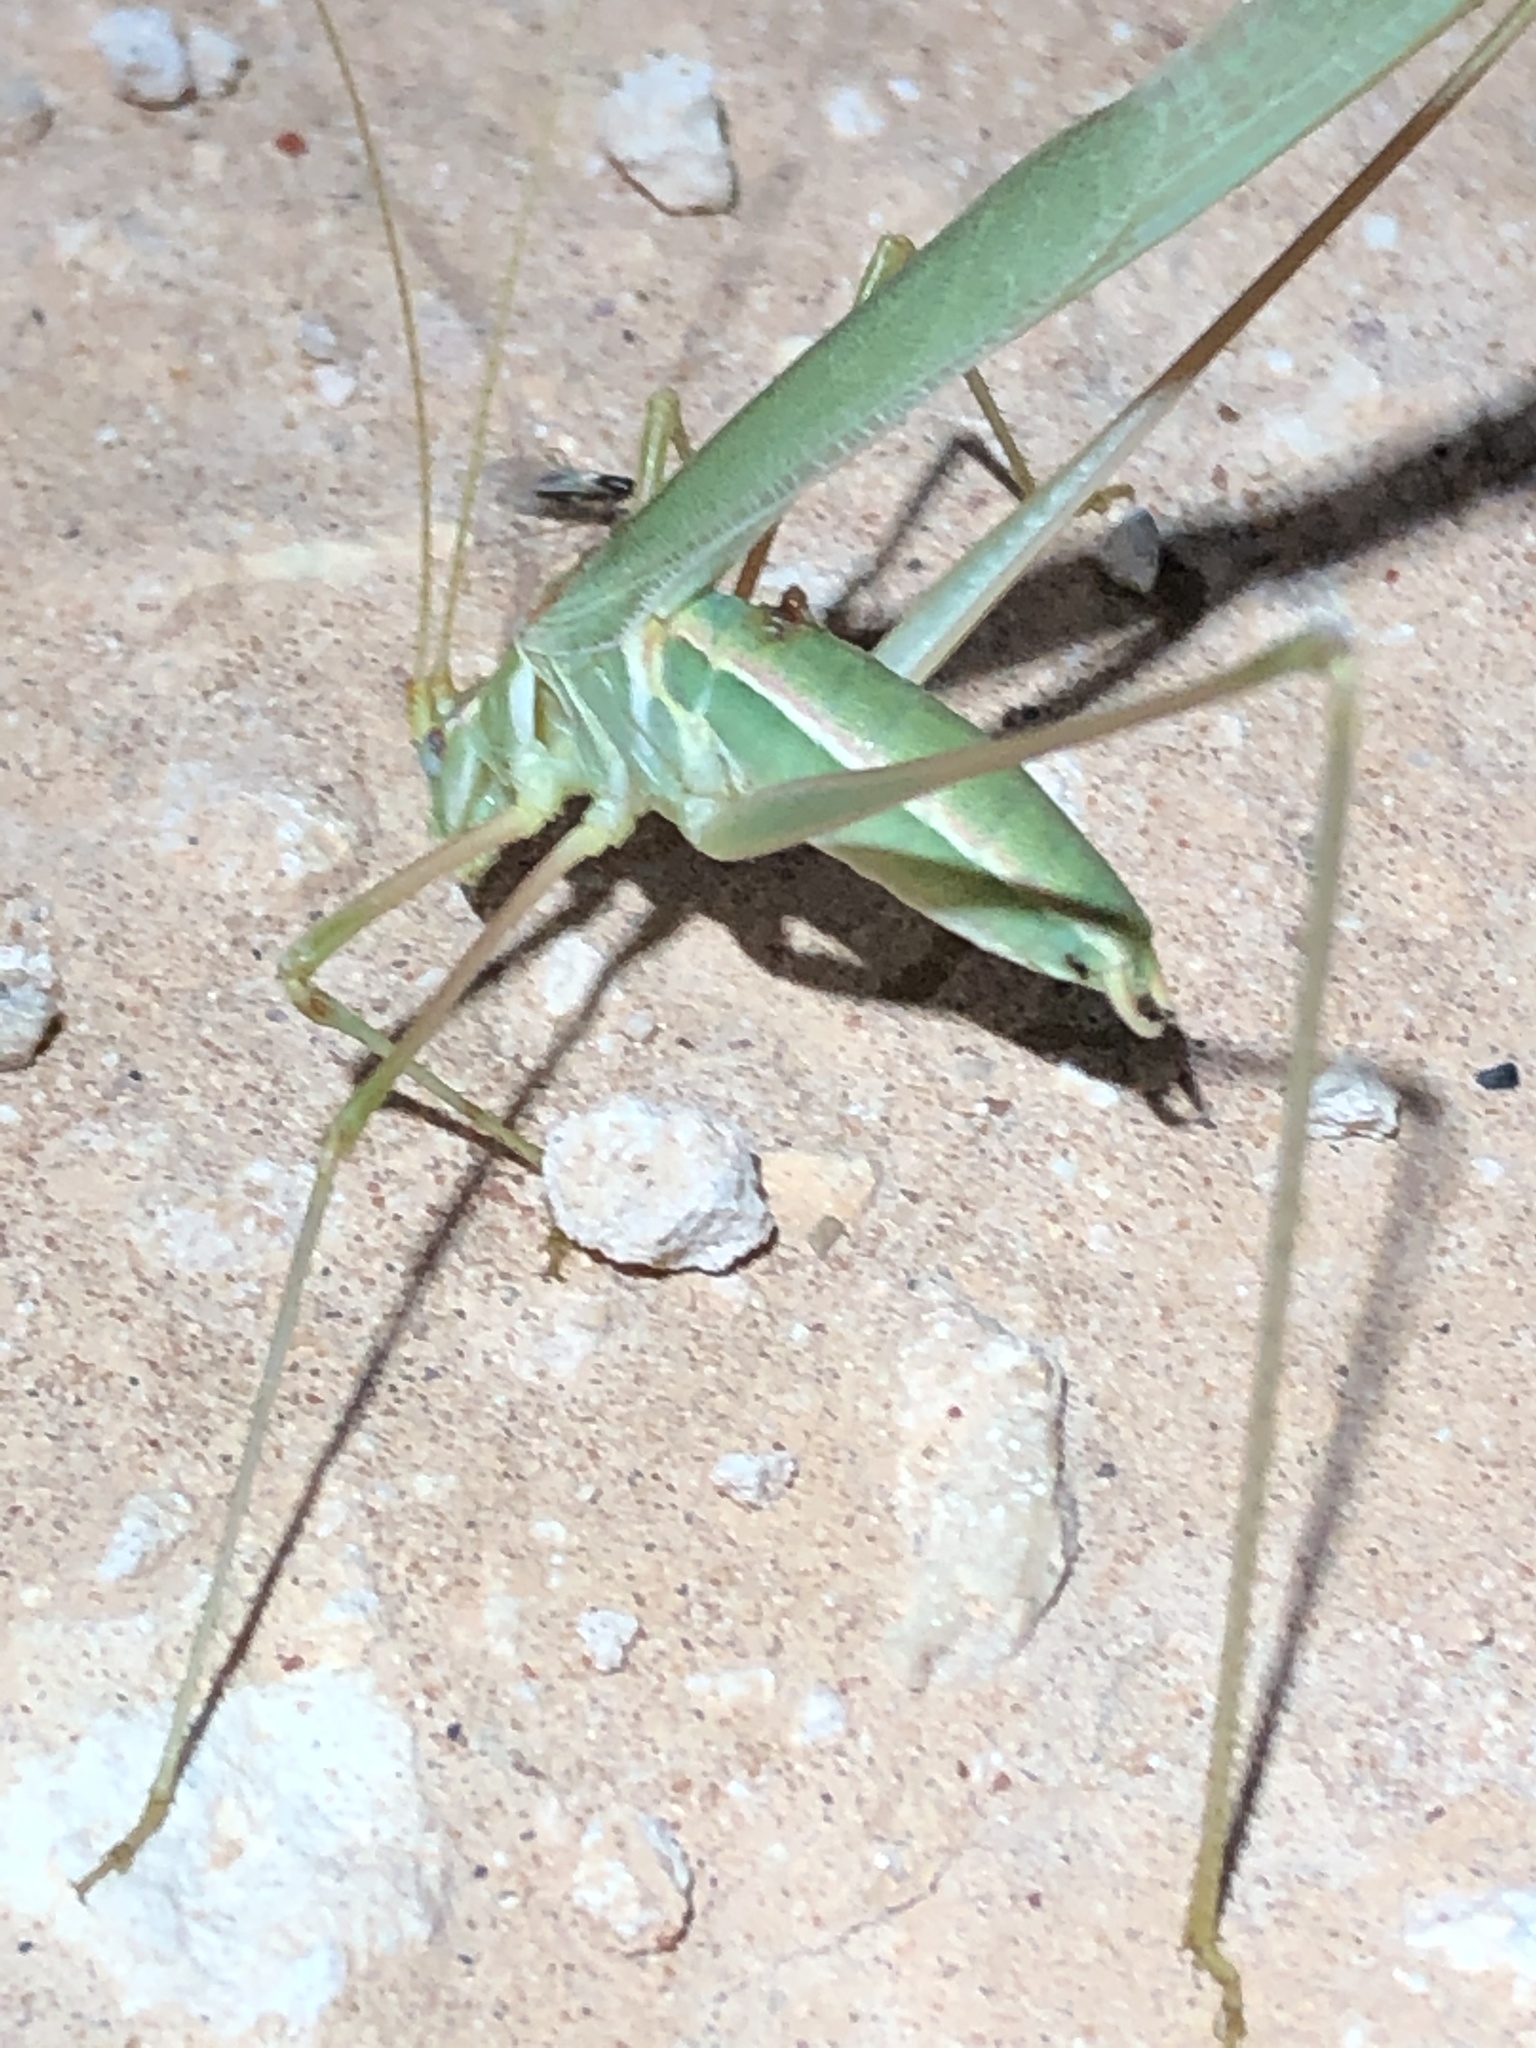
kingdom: Animalia
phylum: Arthropoda
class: Insecta
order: Orthoptera
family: Tettigoniidae
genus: Arethaea
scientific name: Arethaea mescalero
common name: Mescalero thread-legged katydid
